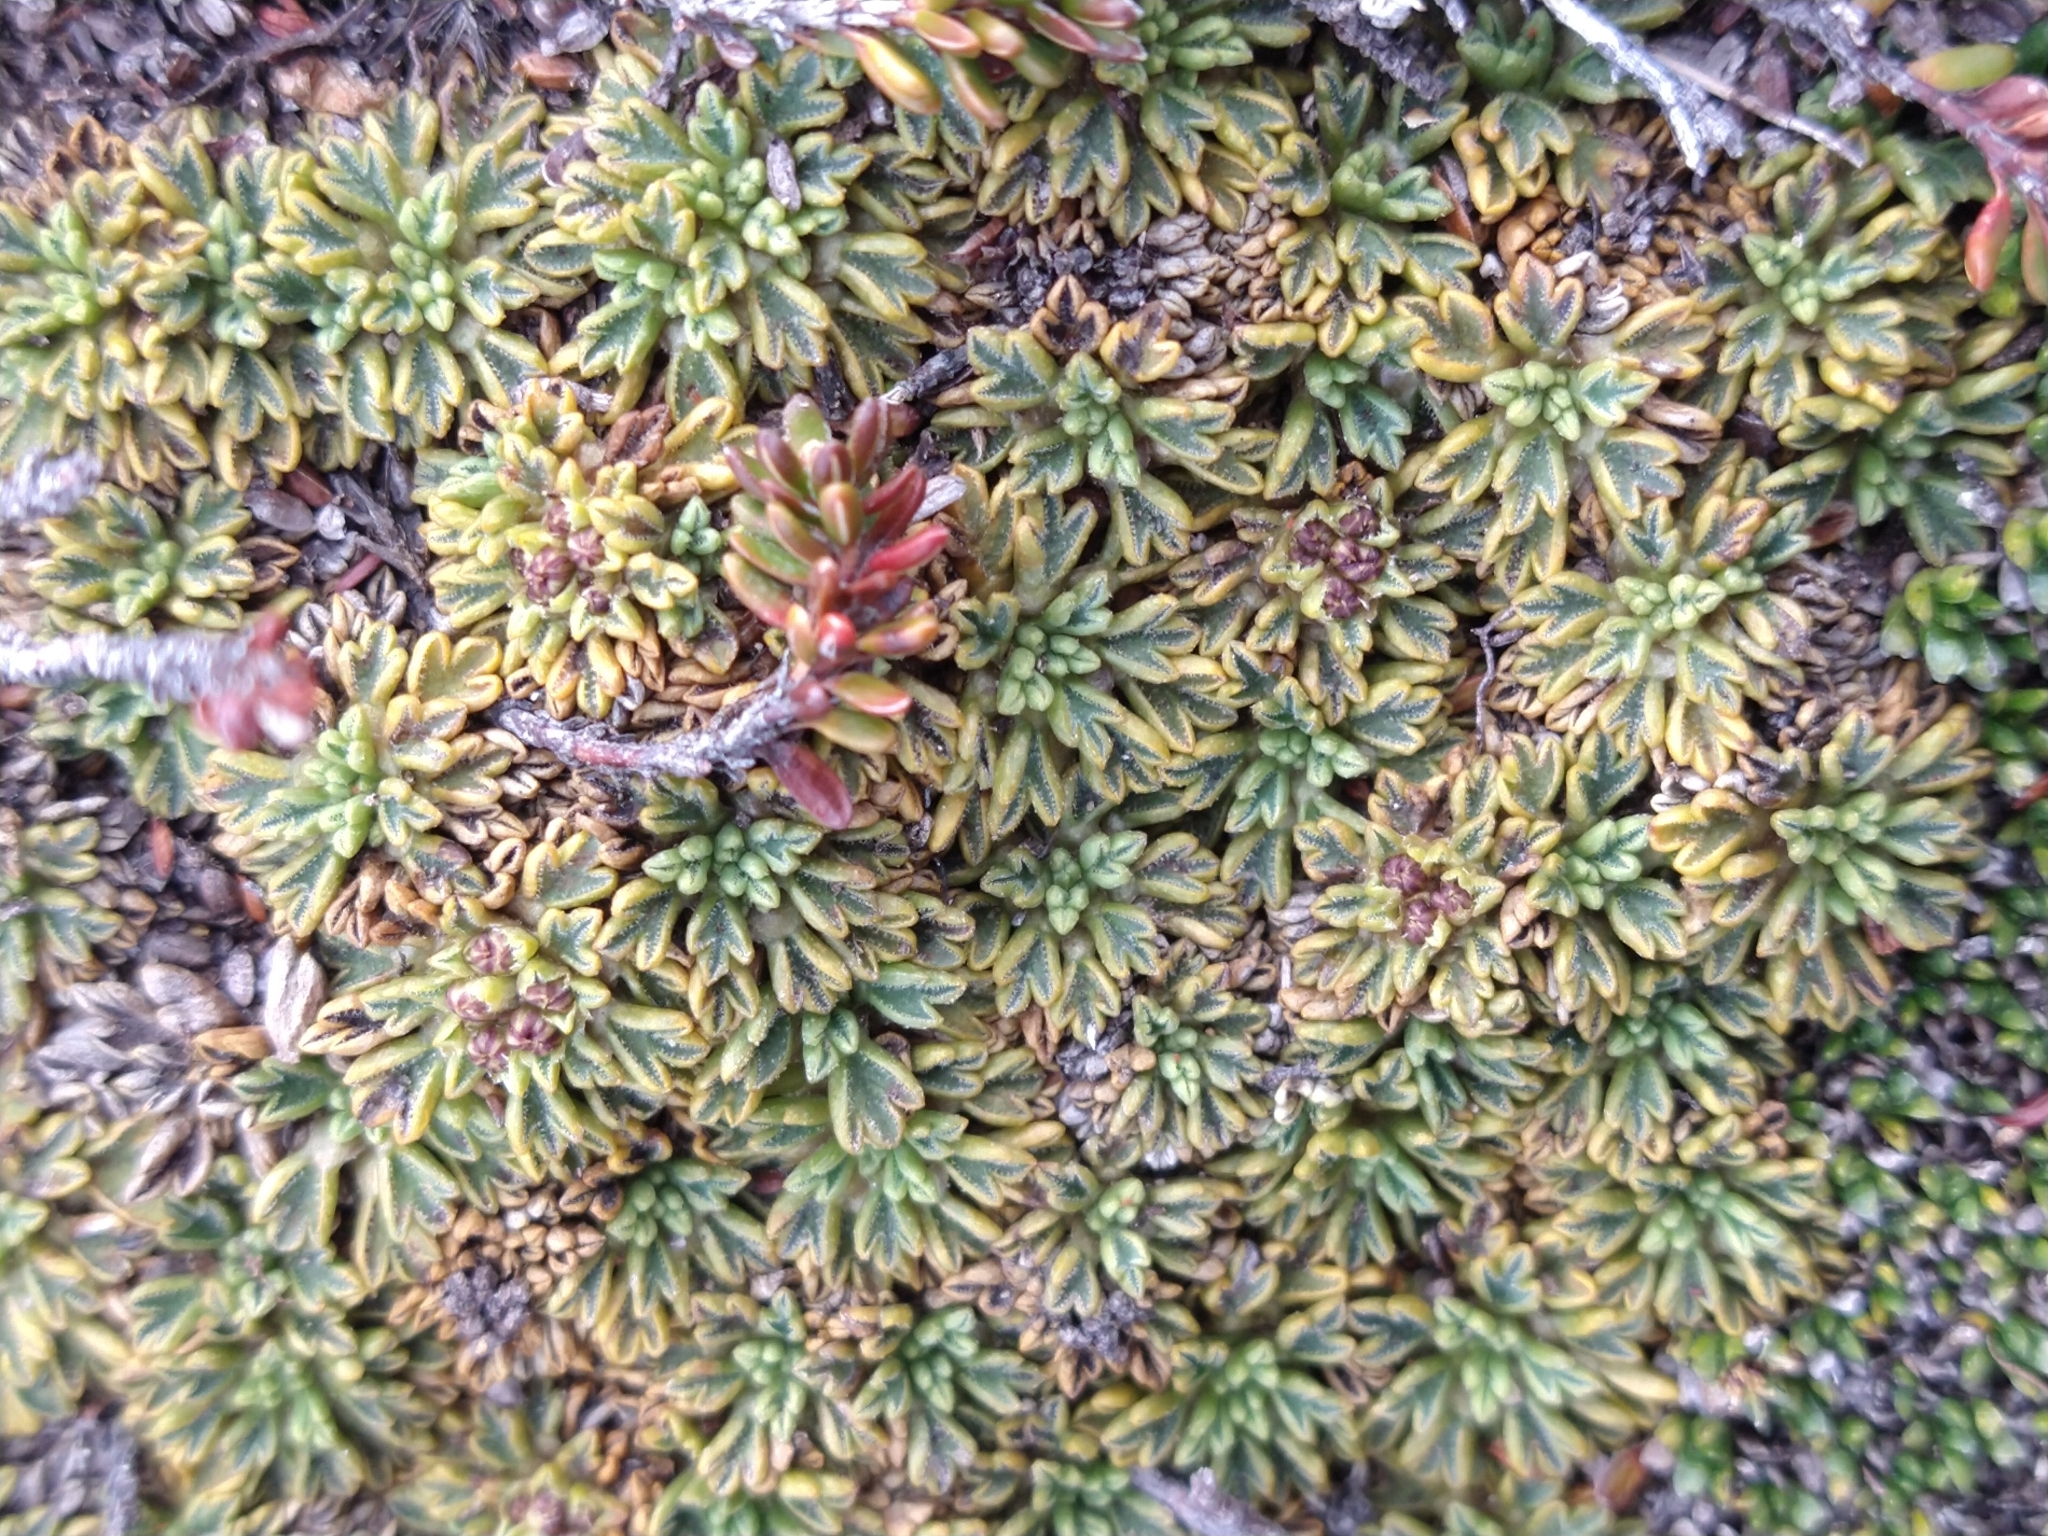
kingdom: Plantae
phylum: Tracheophyta
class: Magnoliopsida
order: Apiales
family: Apiaceae
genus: Bolax
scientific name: Bolax gummifera
